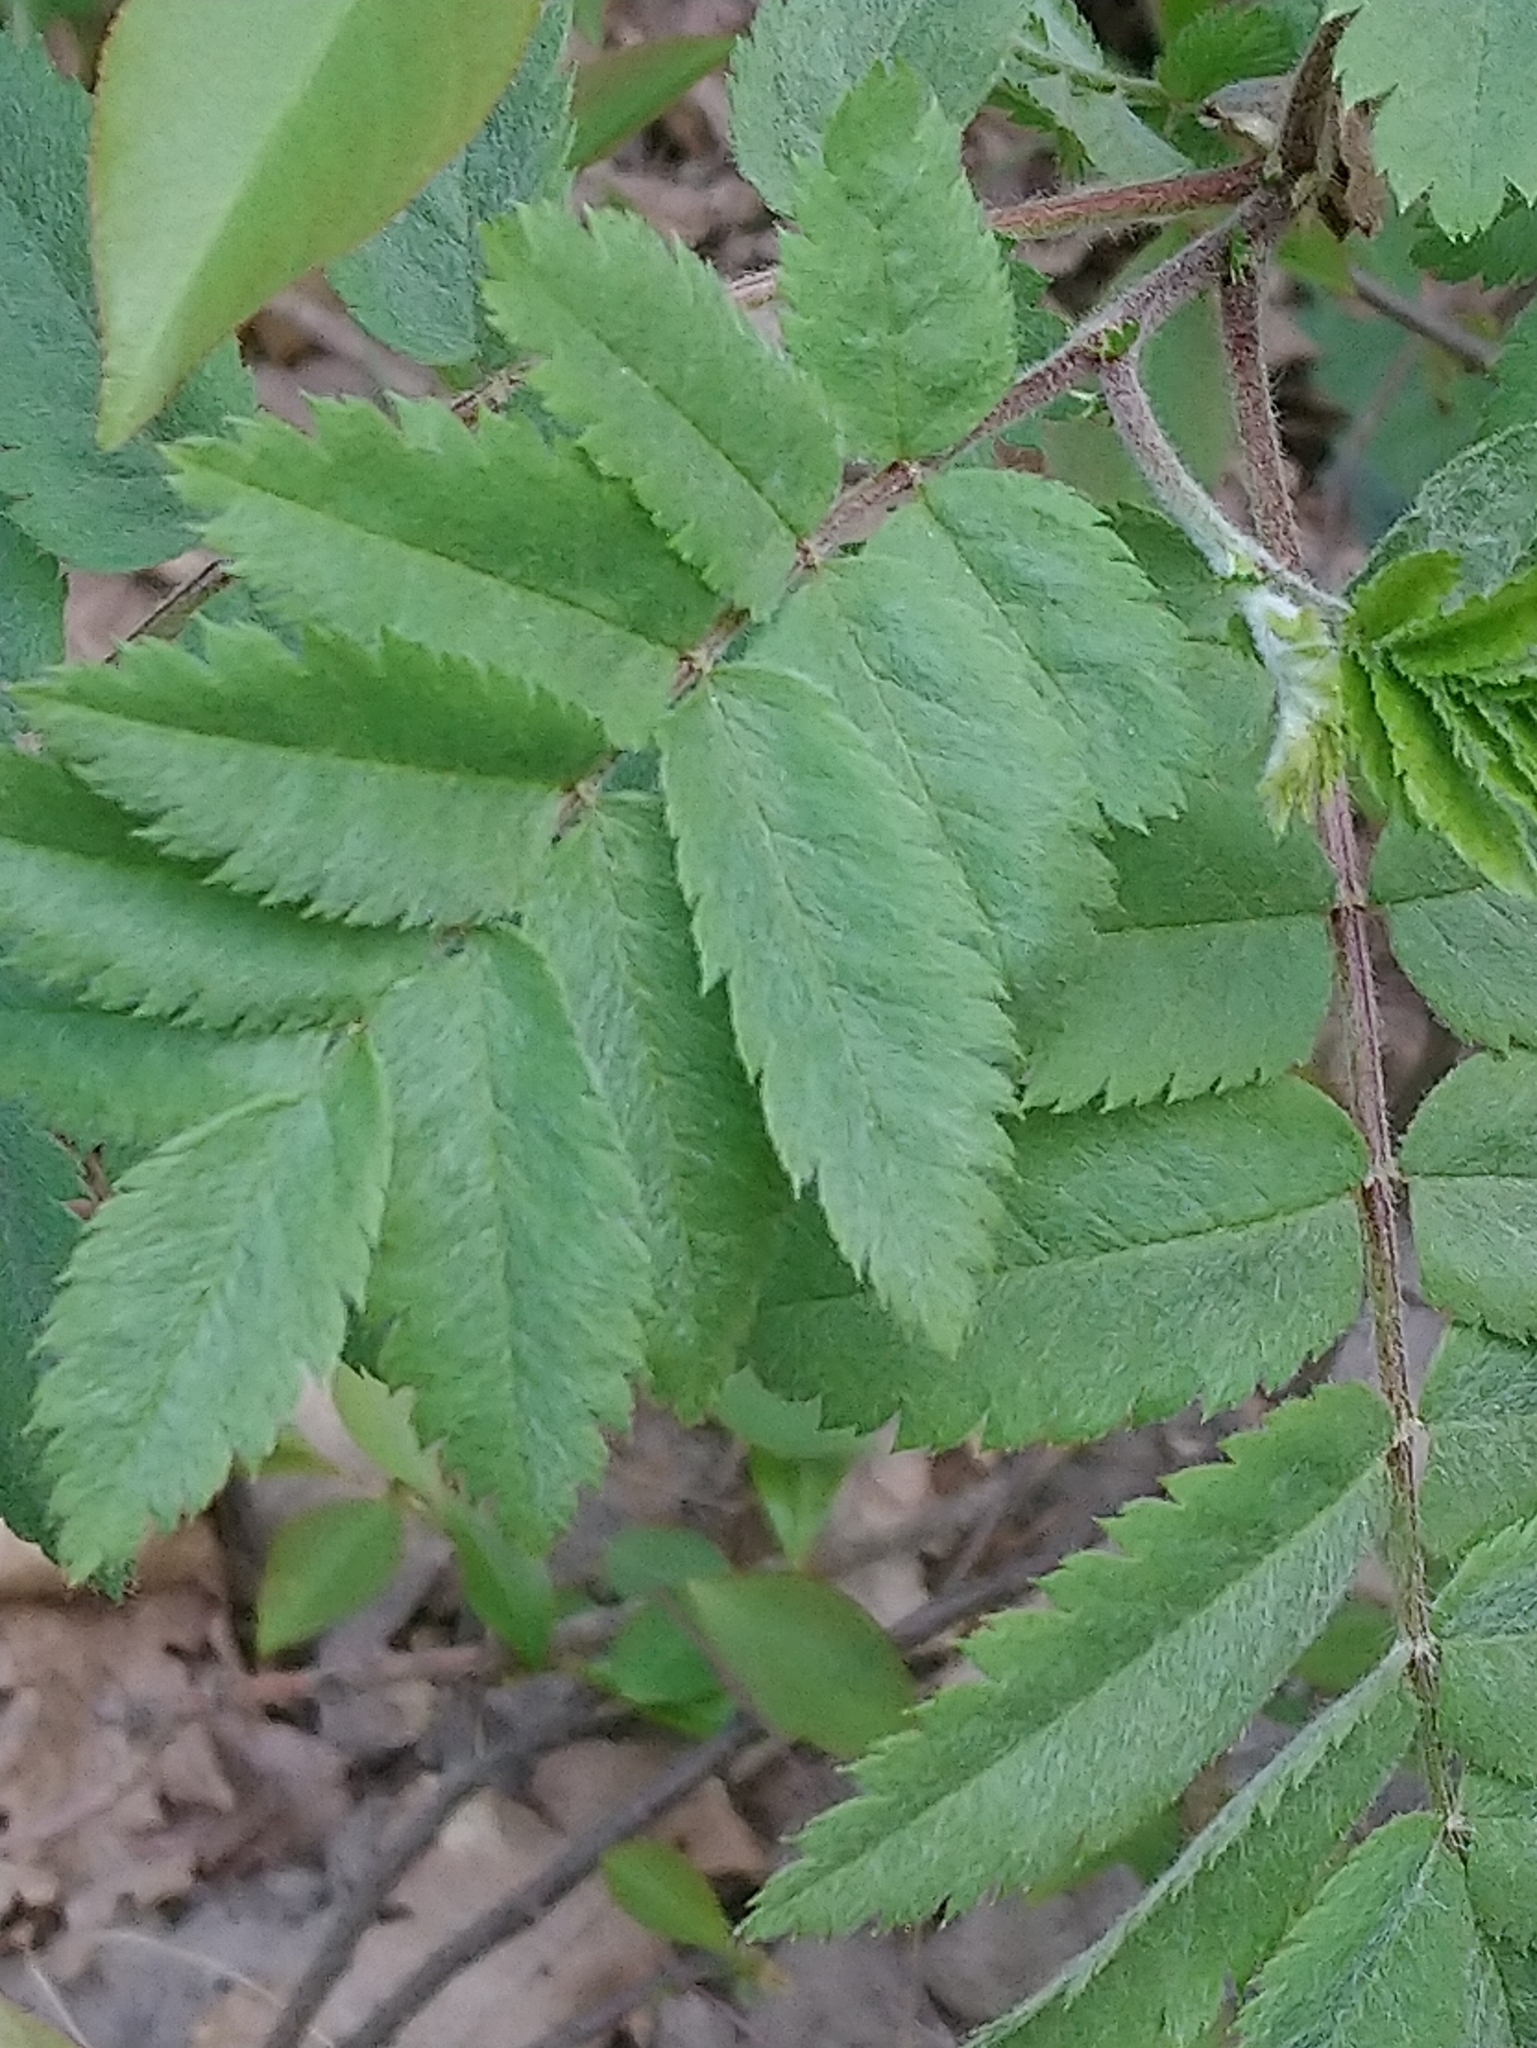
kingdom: Plantae
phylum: Tracheophyta
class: Magnoliopsida
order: Rosales
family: Rosaceae
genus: Sorbus
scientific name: Sorbus aucuparia
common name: Rowan
